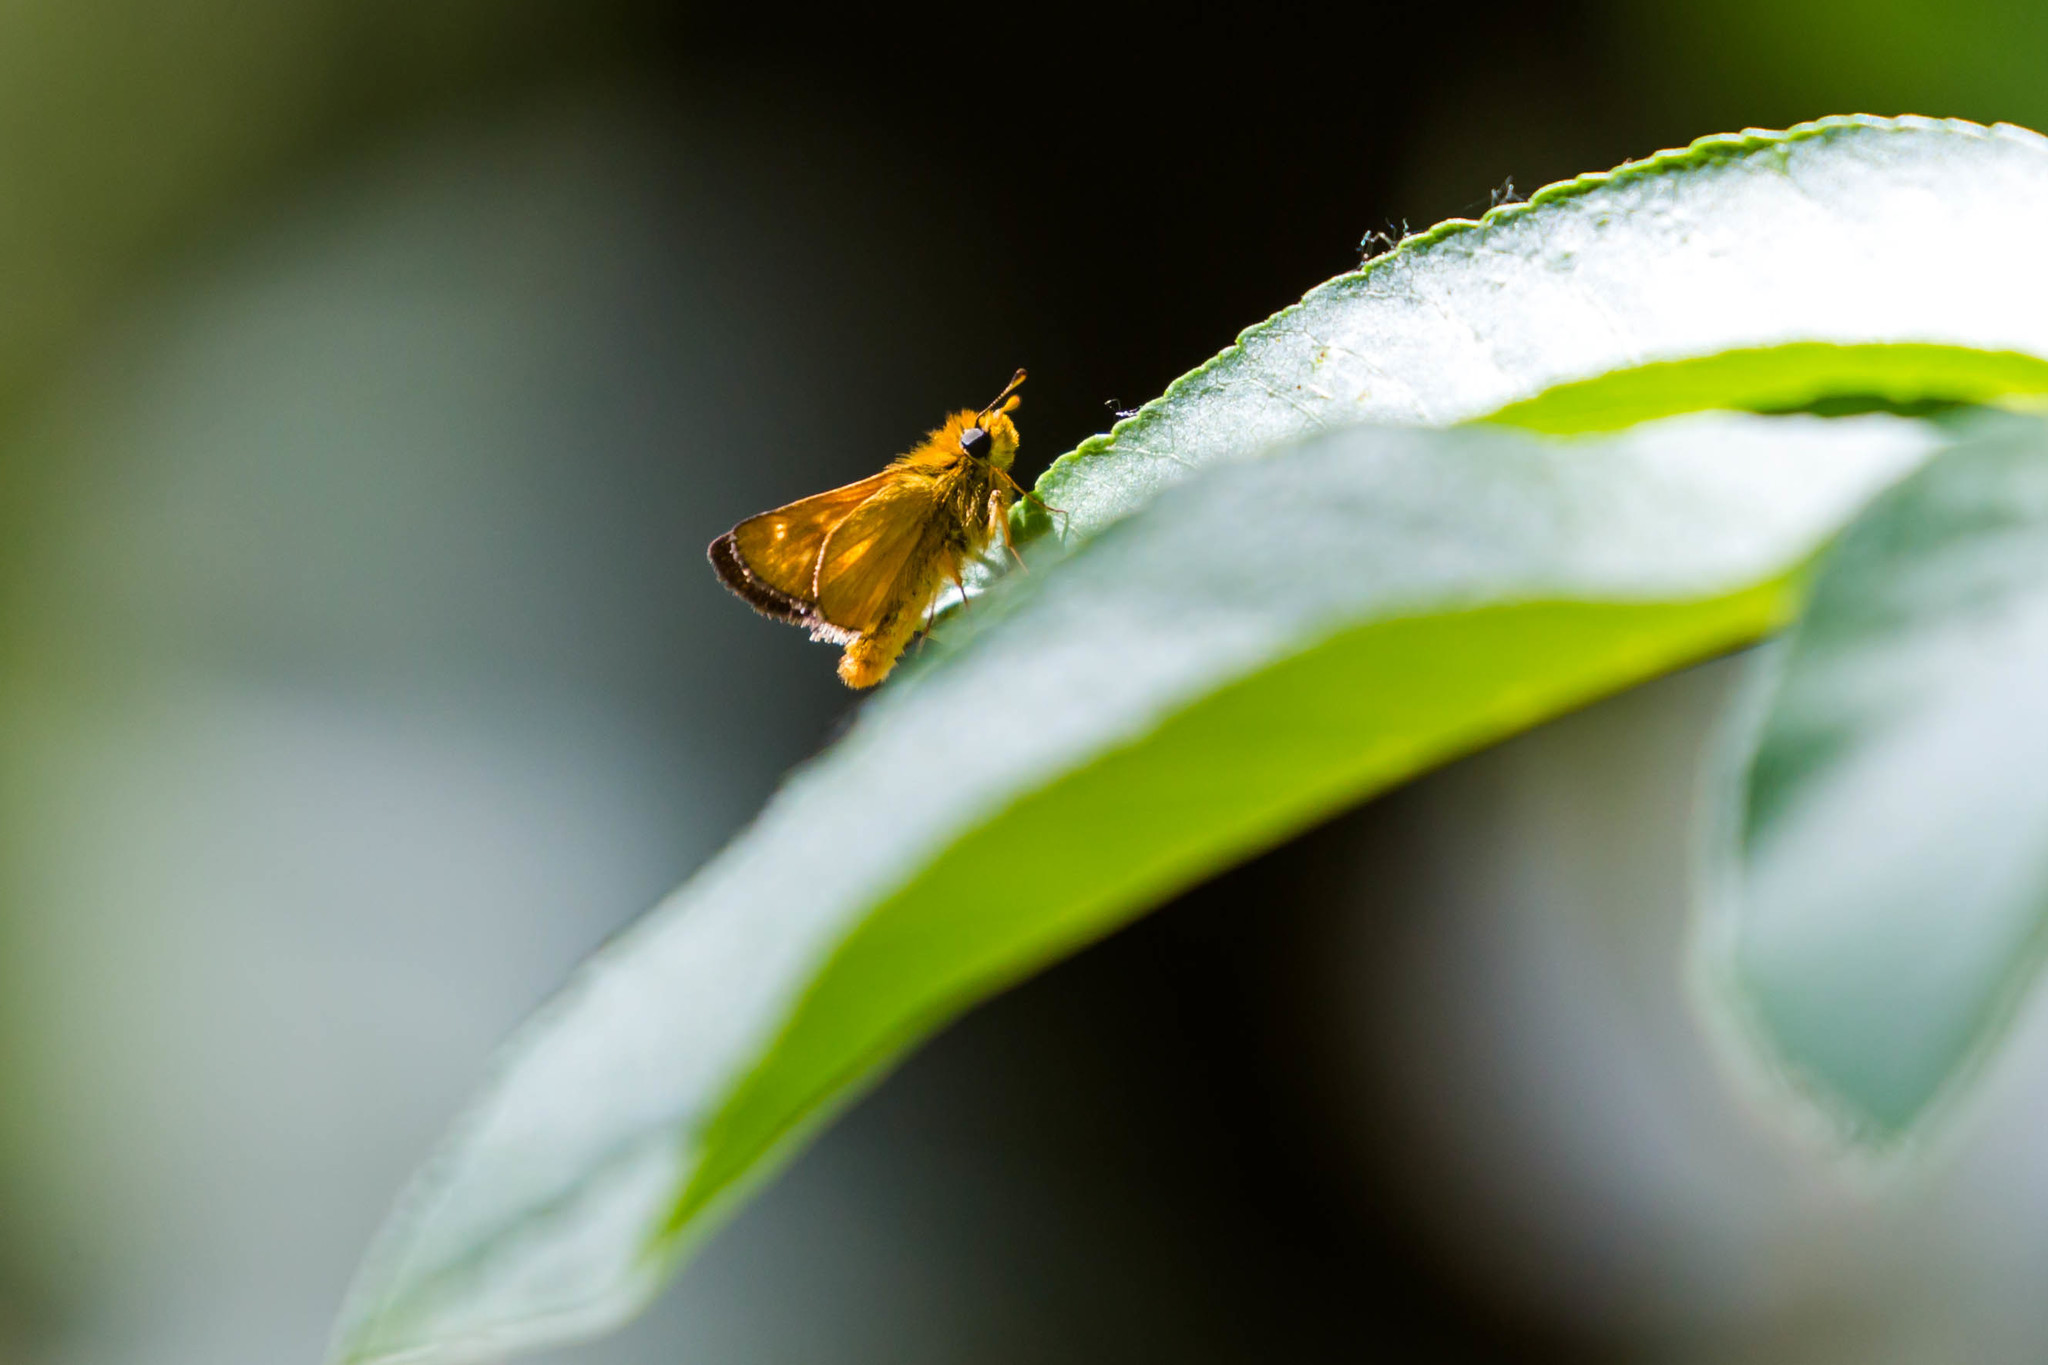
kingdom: Animalia
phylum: Arthropoda
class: Insecta
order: Lepidoptera
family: Hesperiidae
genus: Ochlodes
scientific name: Ochlodes agricola
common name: Rural skipper
